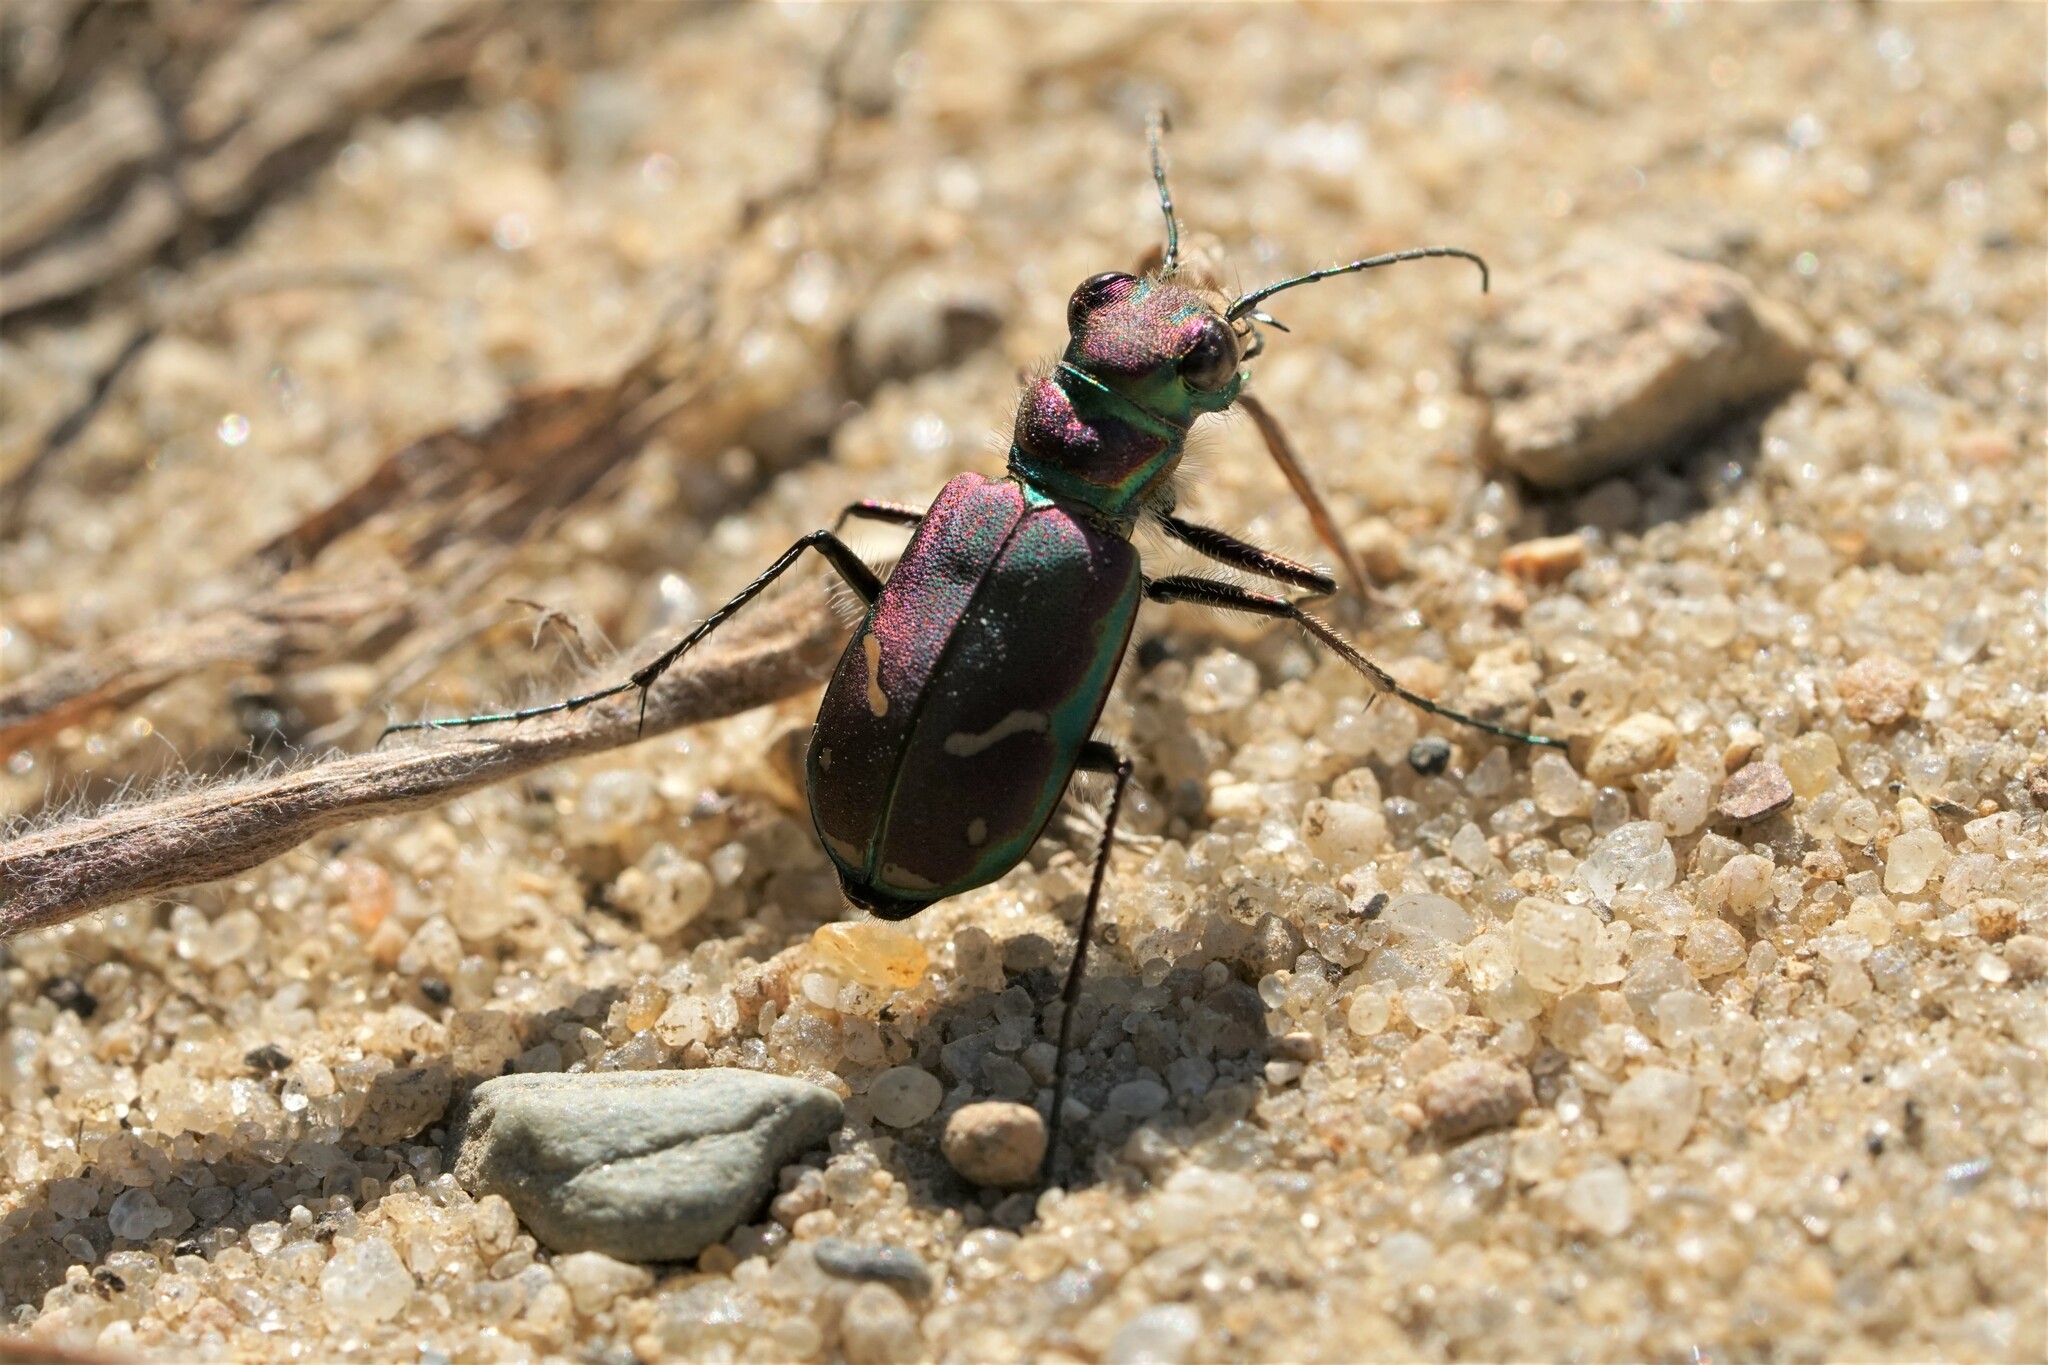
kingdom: Animalia
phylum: Arthropoda
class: Insecta
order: Coleoptera
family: Carabidae
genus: Cicindela
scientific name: Cicindela purpurea
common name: Cow path tiger beetle
